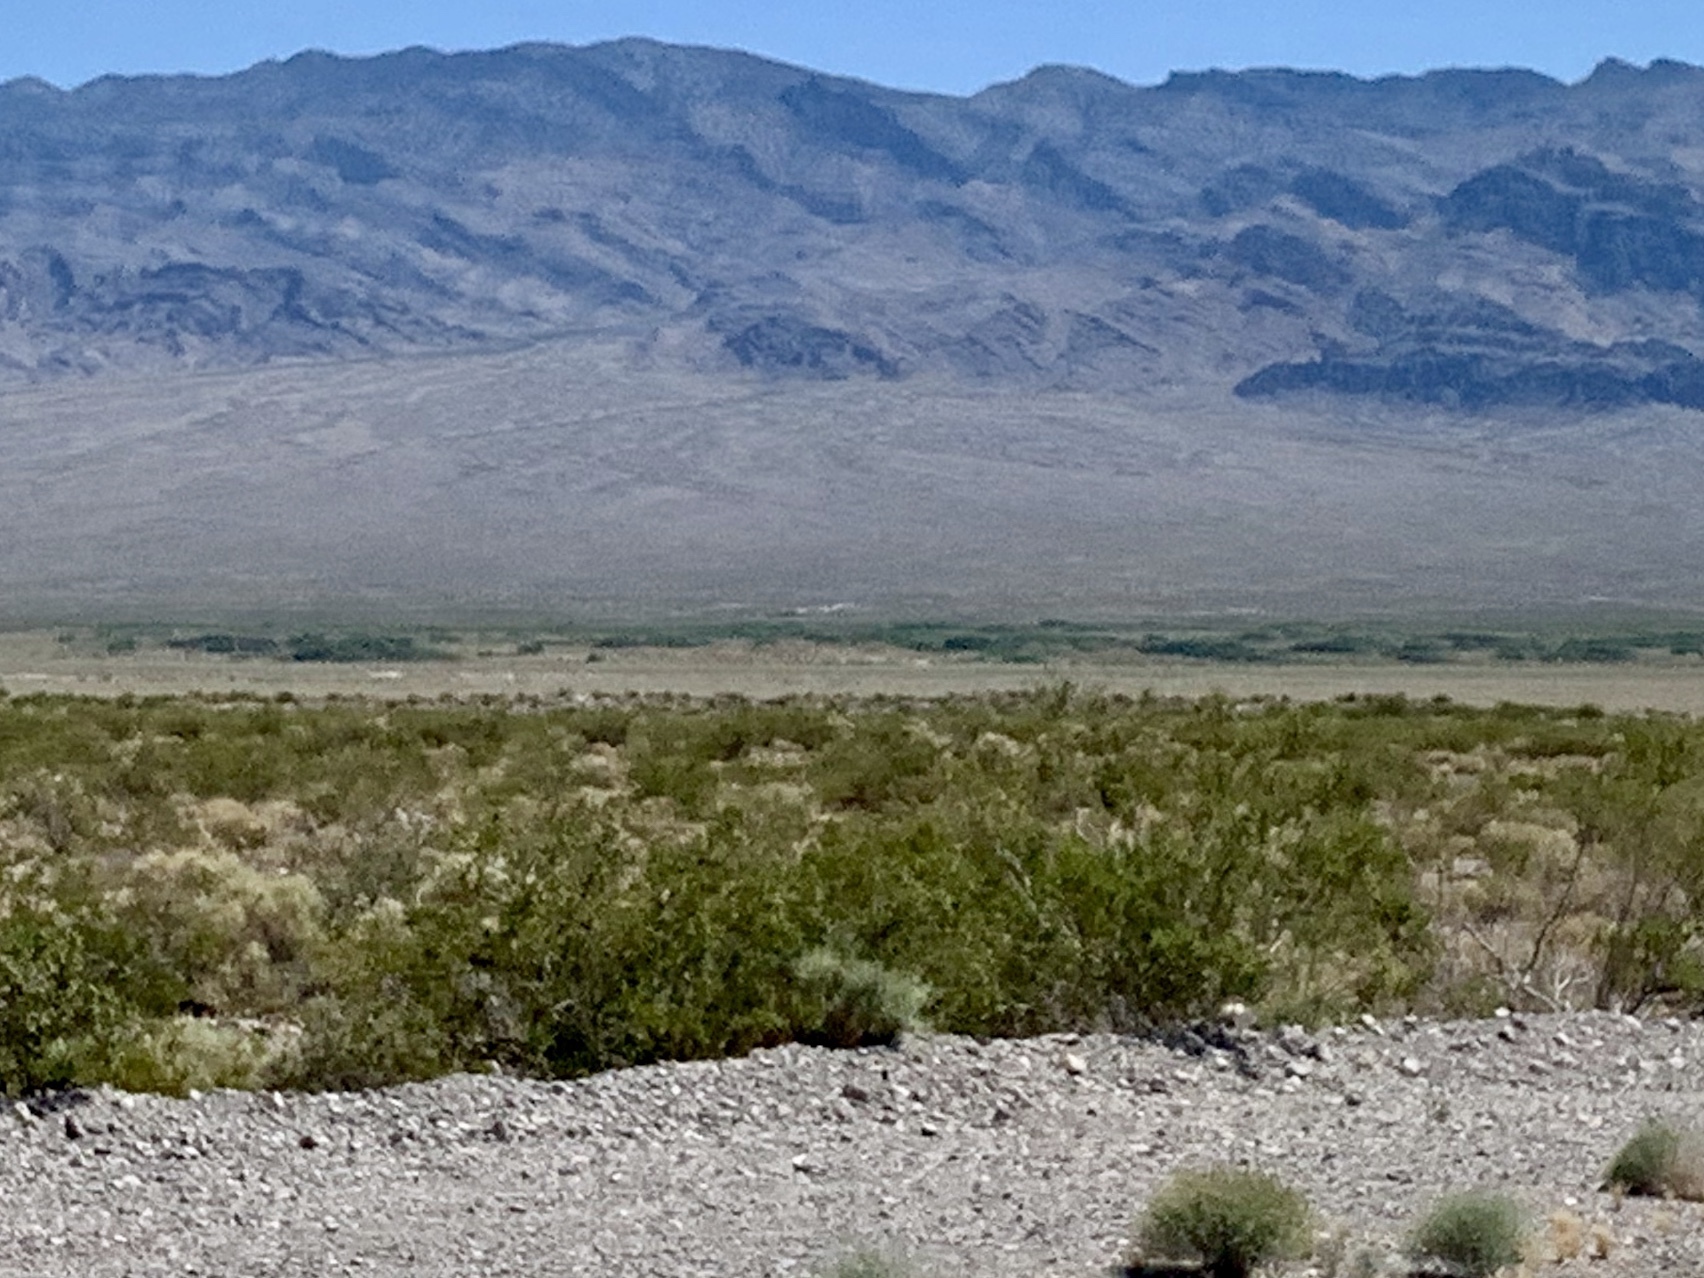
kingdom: Plantae
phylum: Tracheophyta
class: Magnoliopsida
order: Zygophyllales
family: Zygophyllaceae
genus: Larrea
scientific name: Larrea tridentata
